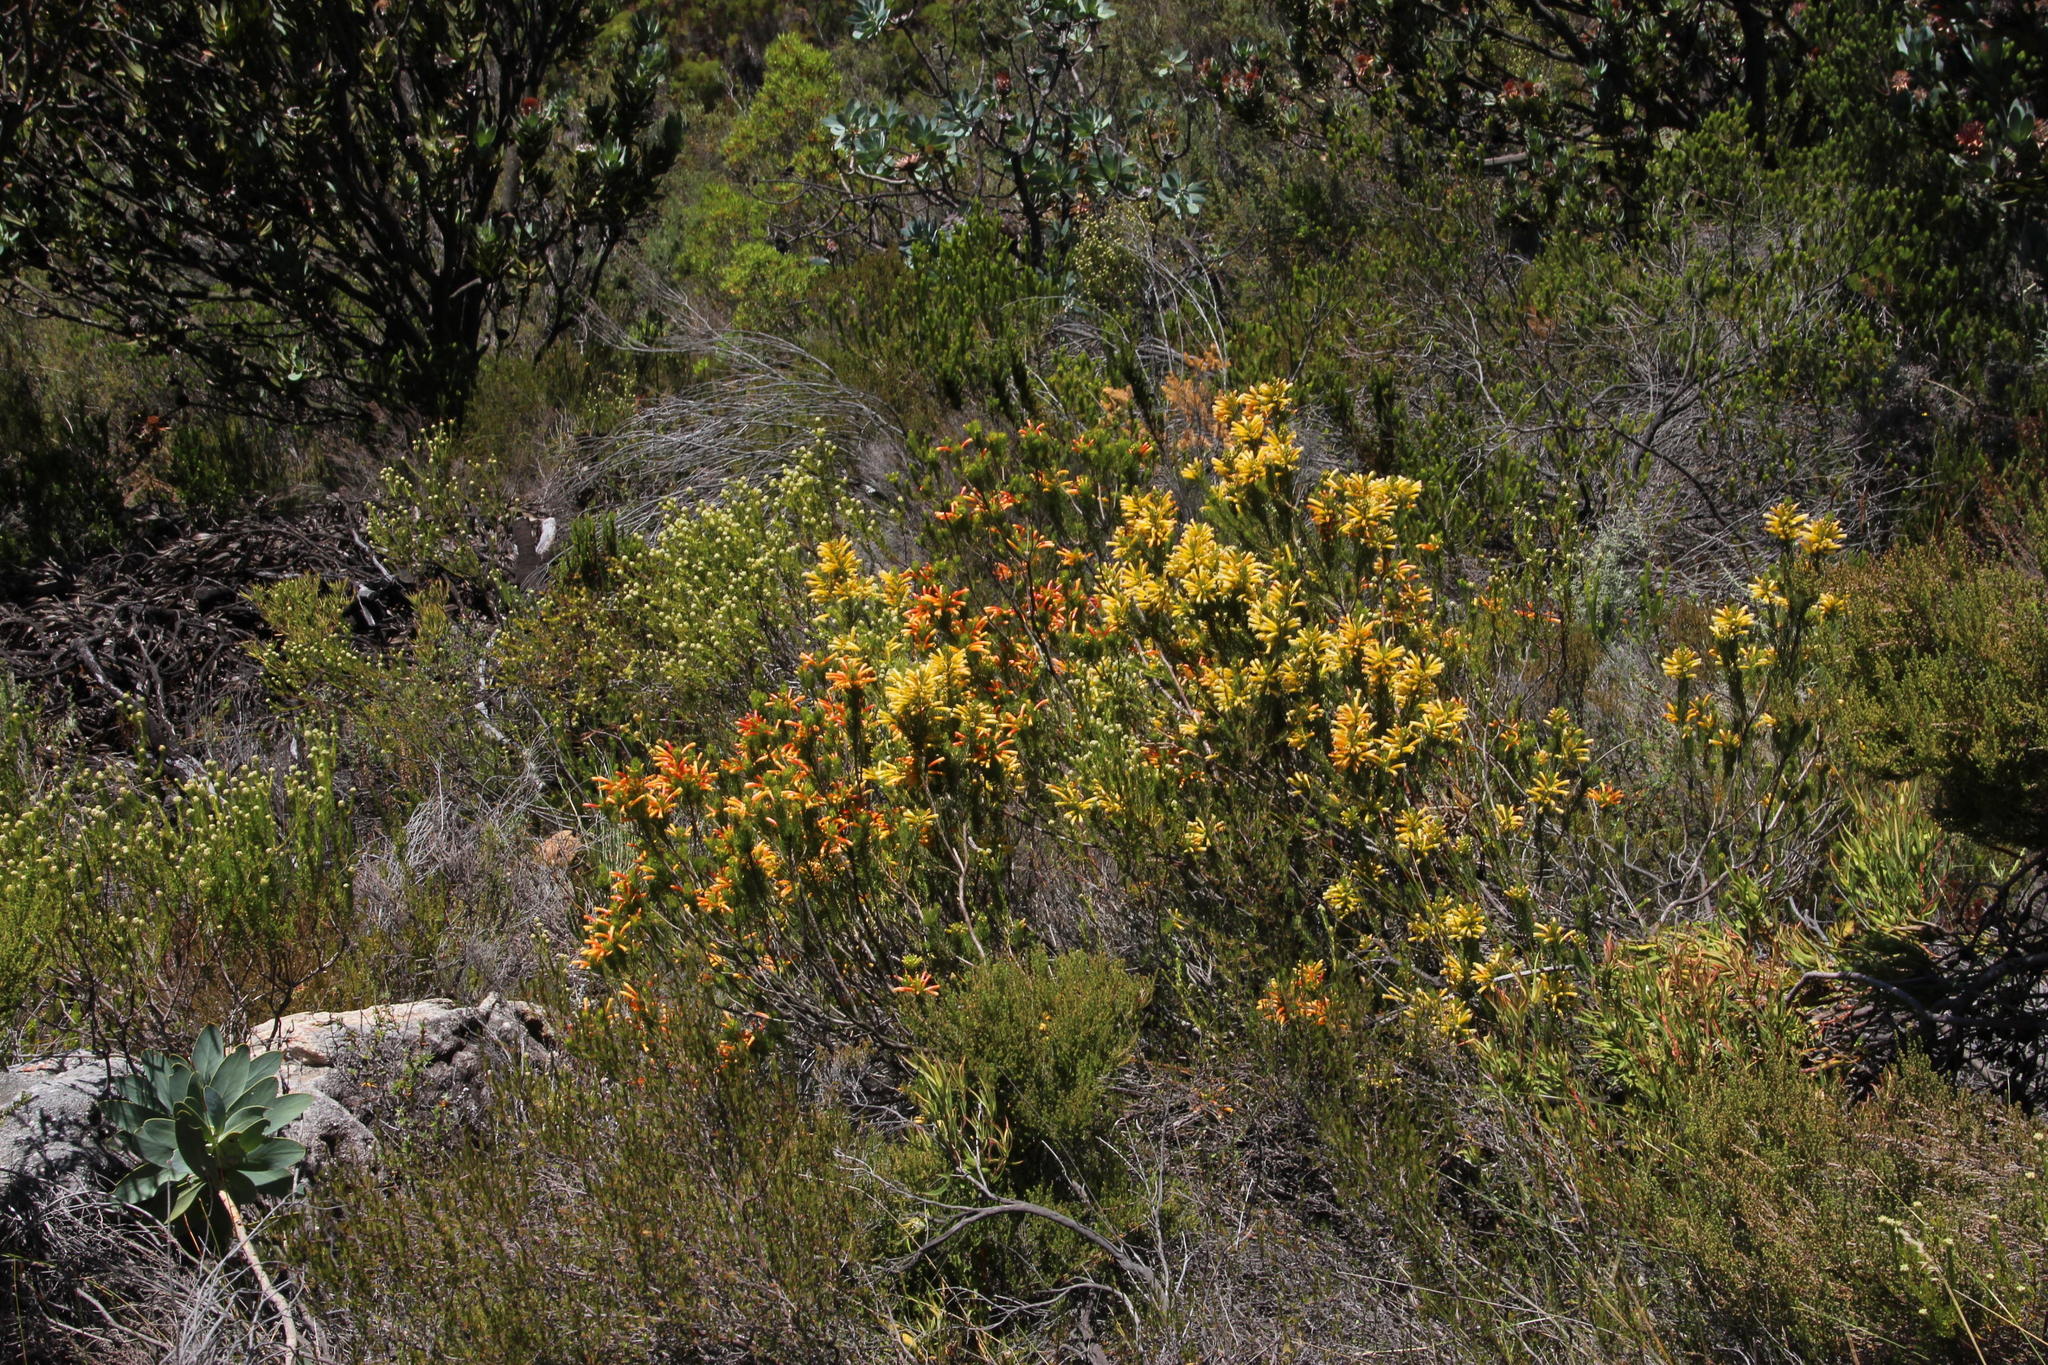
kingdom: Plantae
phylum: Tracheophyta
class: Magnoliopsida
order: Ericales
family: Ericaceae
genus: Erica
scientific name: Erica pinea
